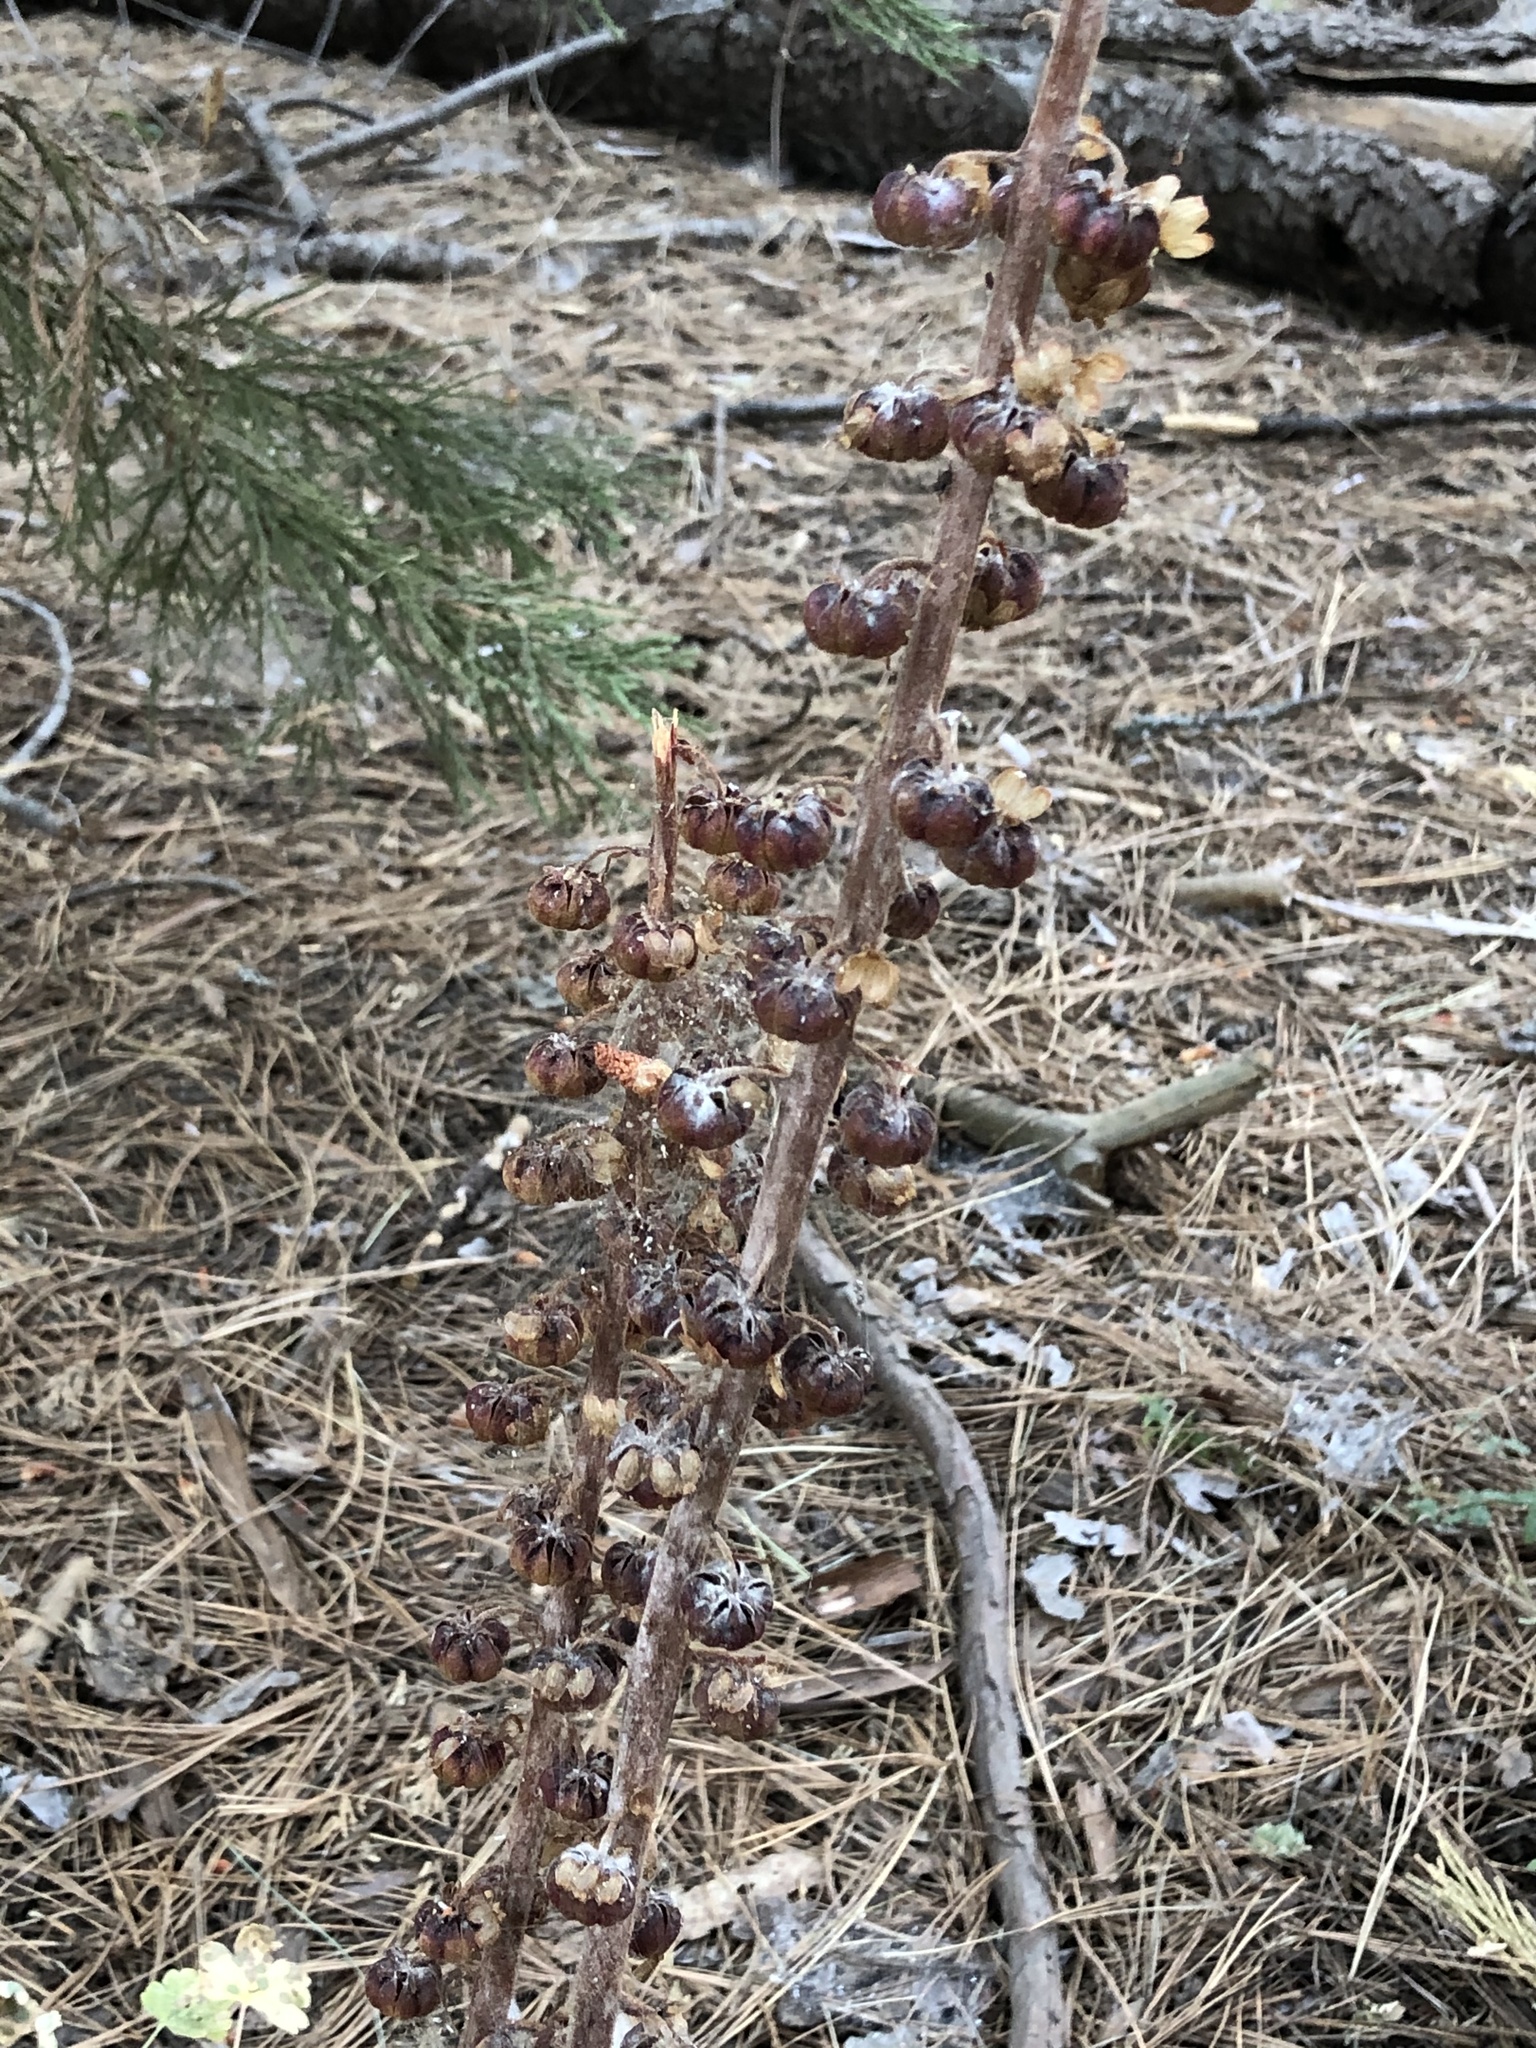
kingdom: Plantae
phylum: Tracheophyta
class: Magnoliopsida
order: Ericales
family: Ericaceae
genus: Pterospora
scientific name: Pterospora andromedea
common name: Giant bird's-nest
